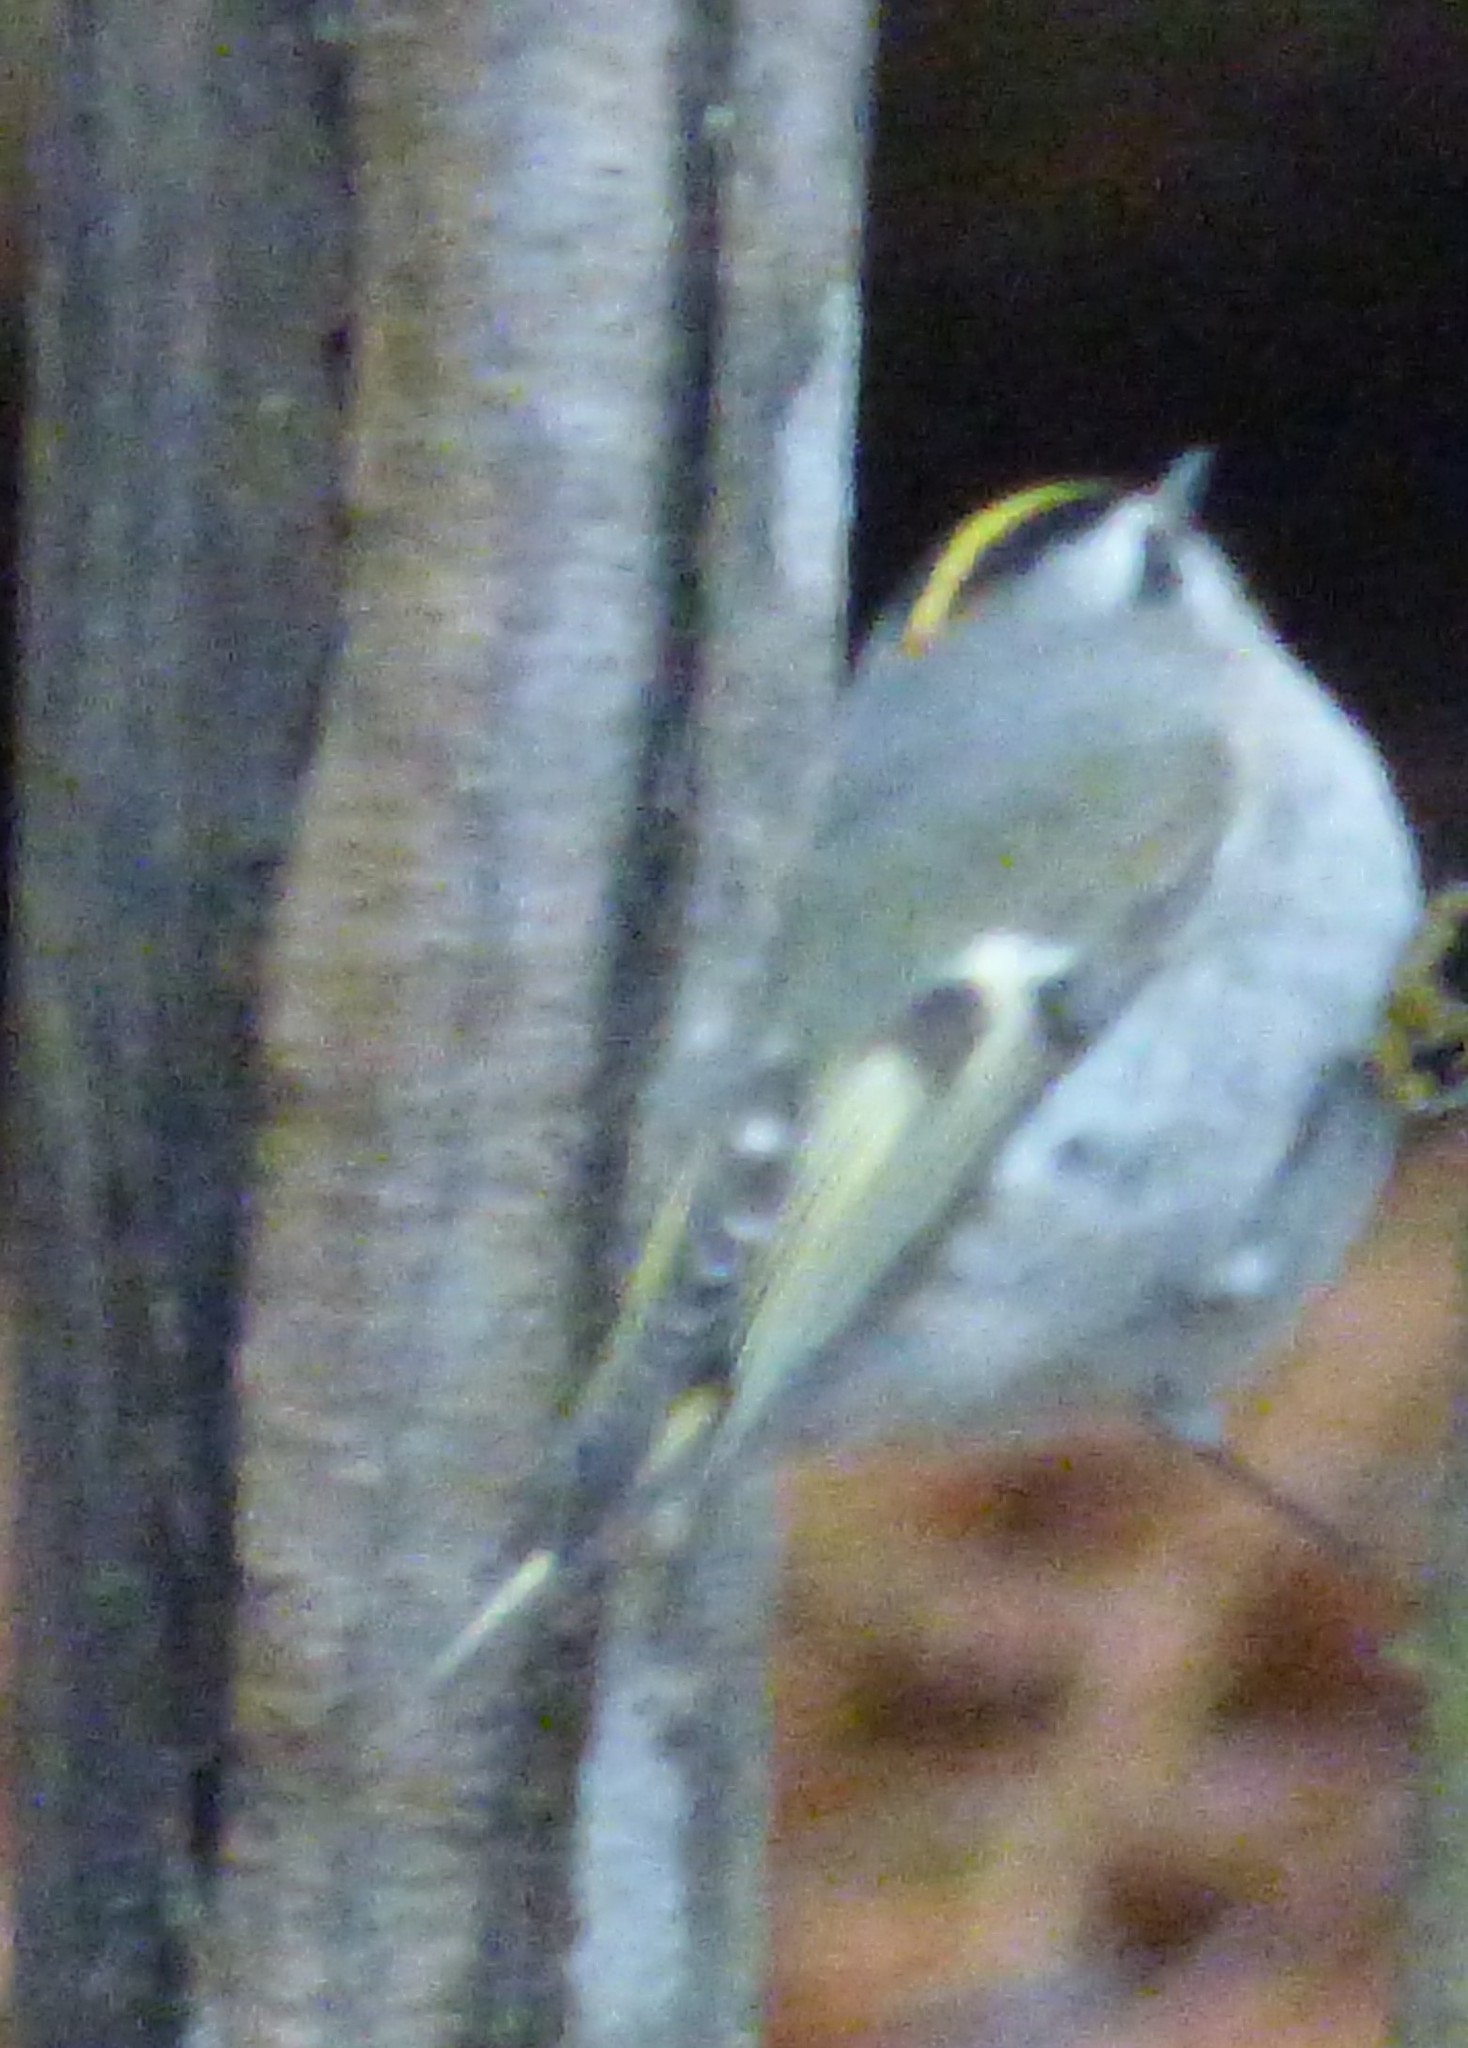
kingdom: Animalia
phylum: Chordata
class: Aves
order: Passeriformes
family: Regulidae
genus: Regulus
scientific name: Regulus satrapa
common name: Golden-crowned kinglet
